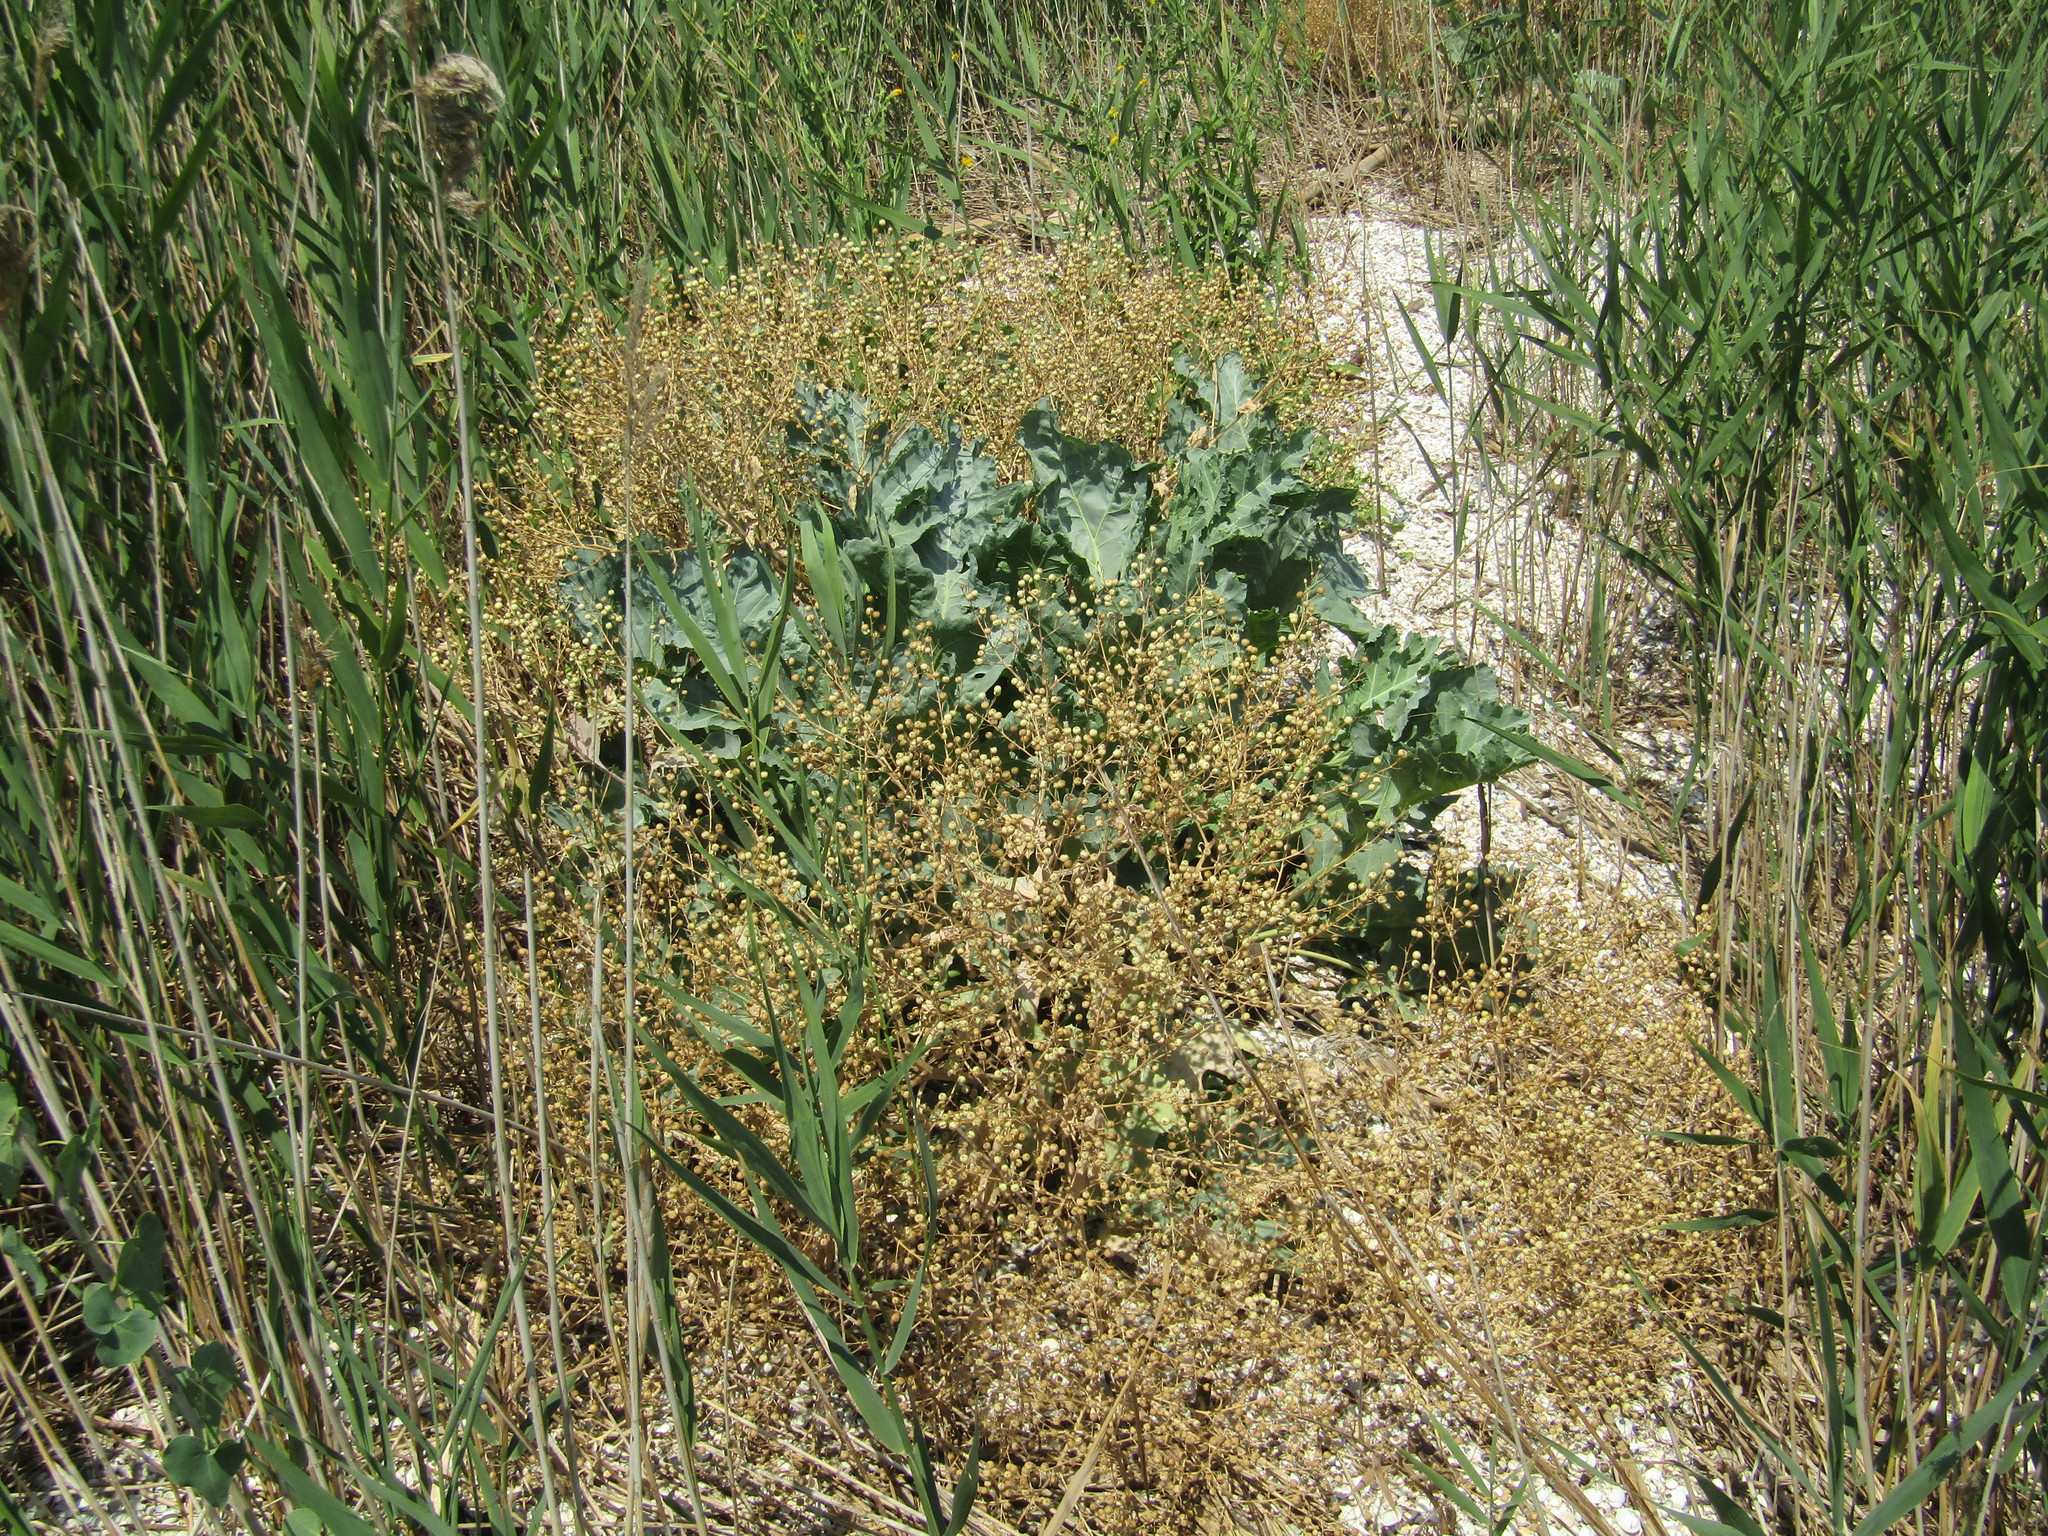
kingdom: Plantae
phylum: Tracheophyta
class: Magnoliopsida
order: Brassicales
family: Brassicaceae
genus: Crambe
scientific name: Crambe maritima
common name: Sea-kale
